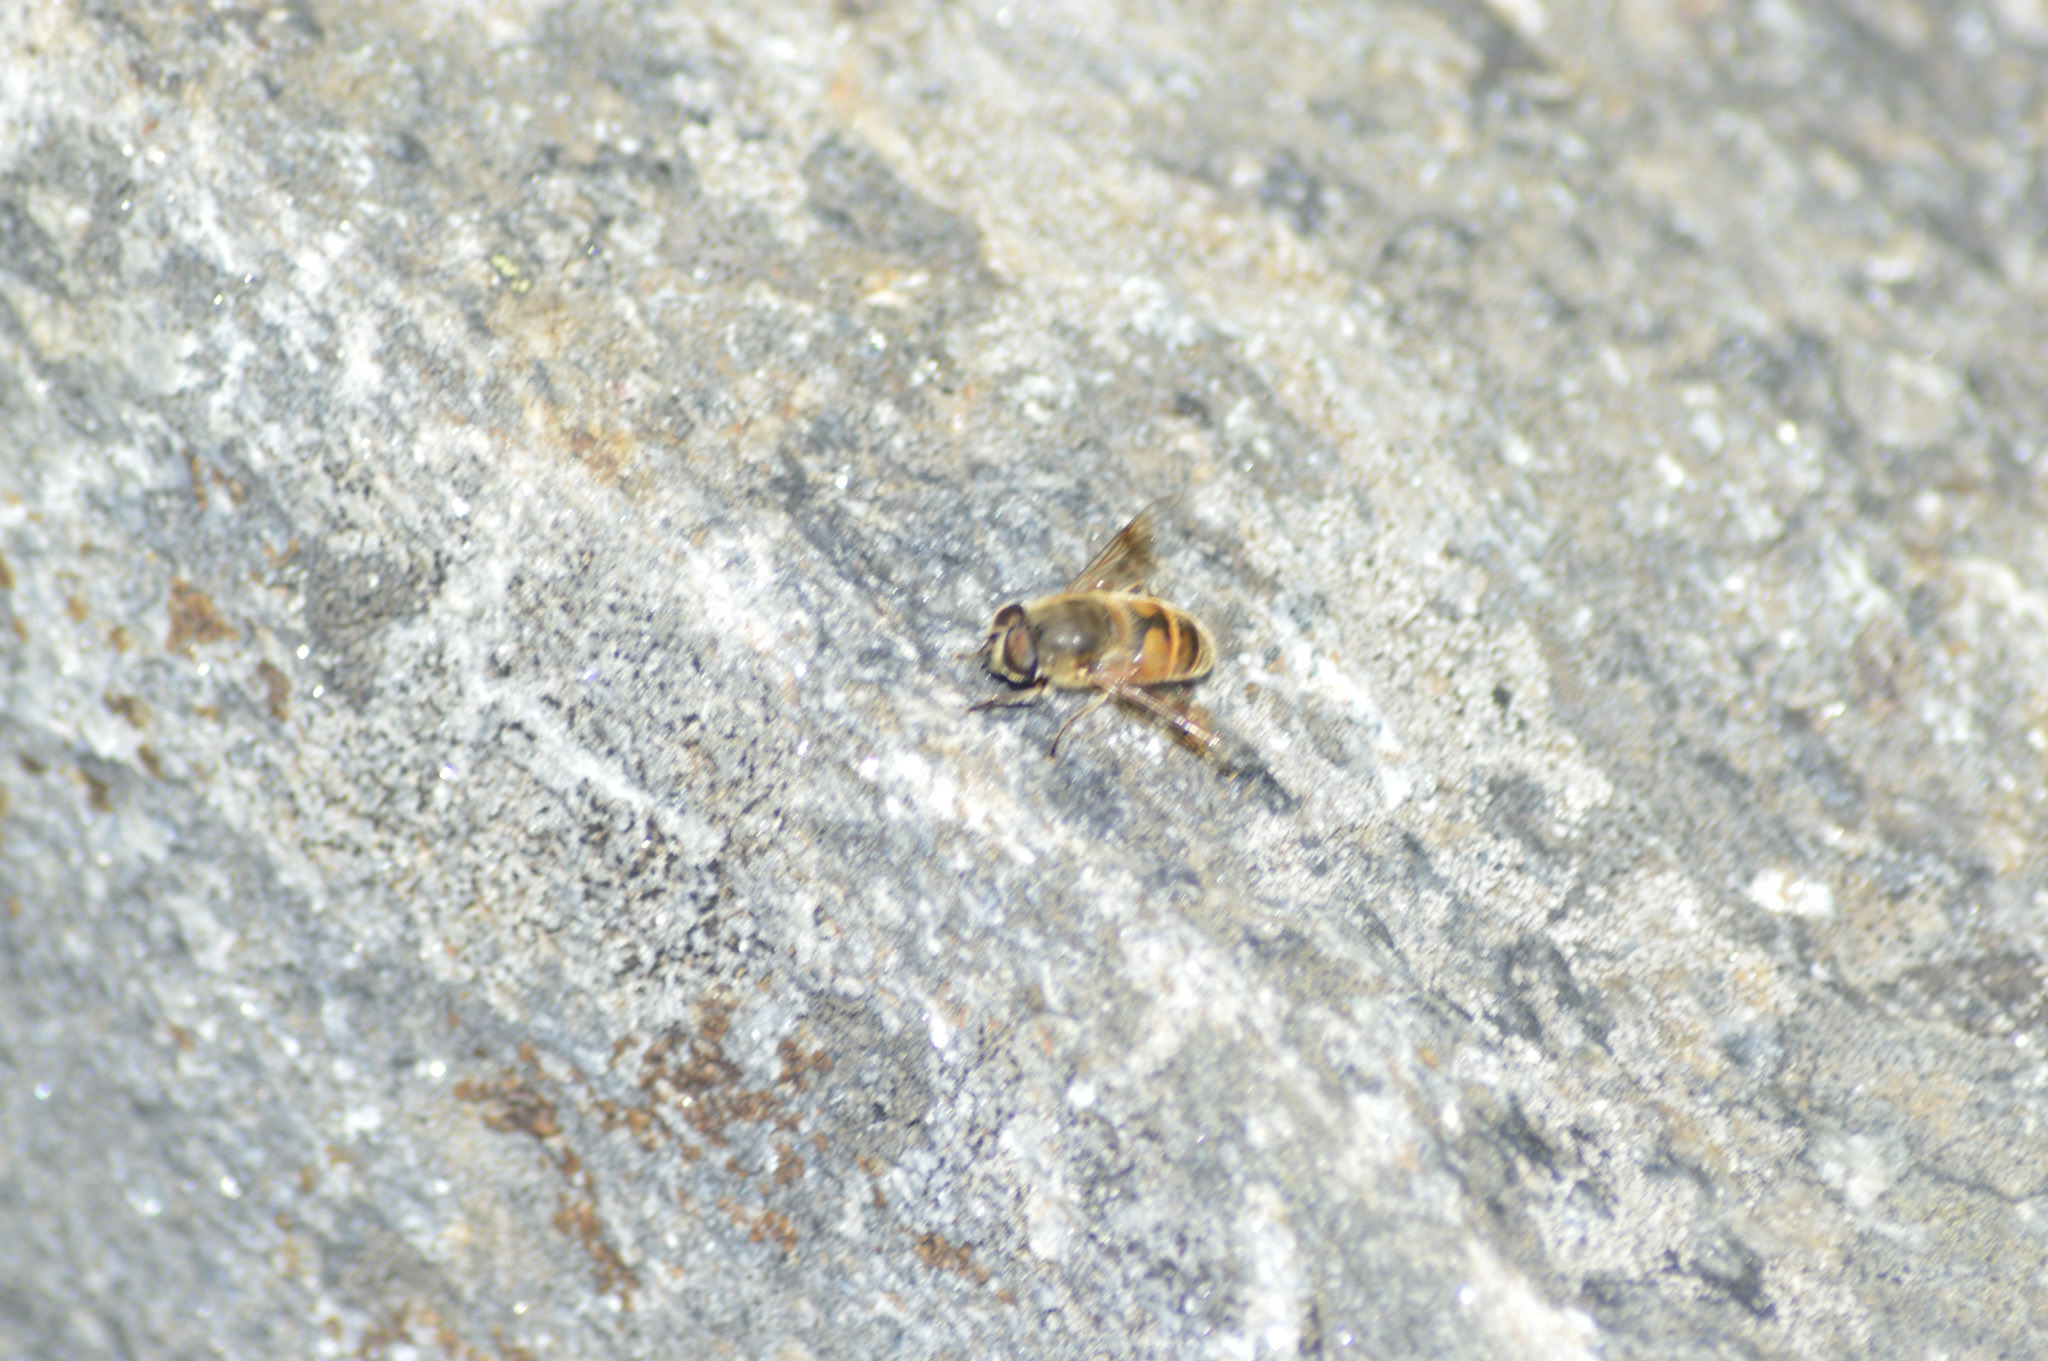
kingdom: Animalia
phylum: Arthropoda
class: Insecta
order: Diptera
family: Syrphidae
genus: Eristalis
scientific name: Eristalis tenax
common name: Drone fly
